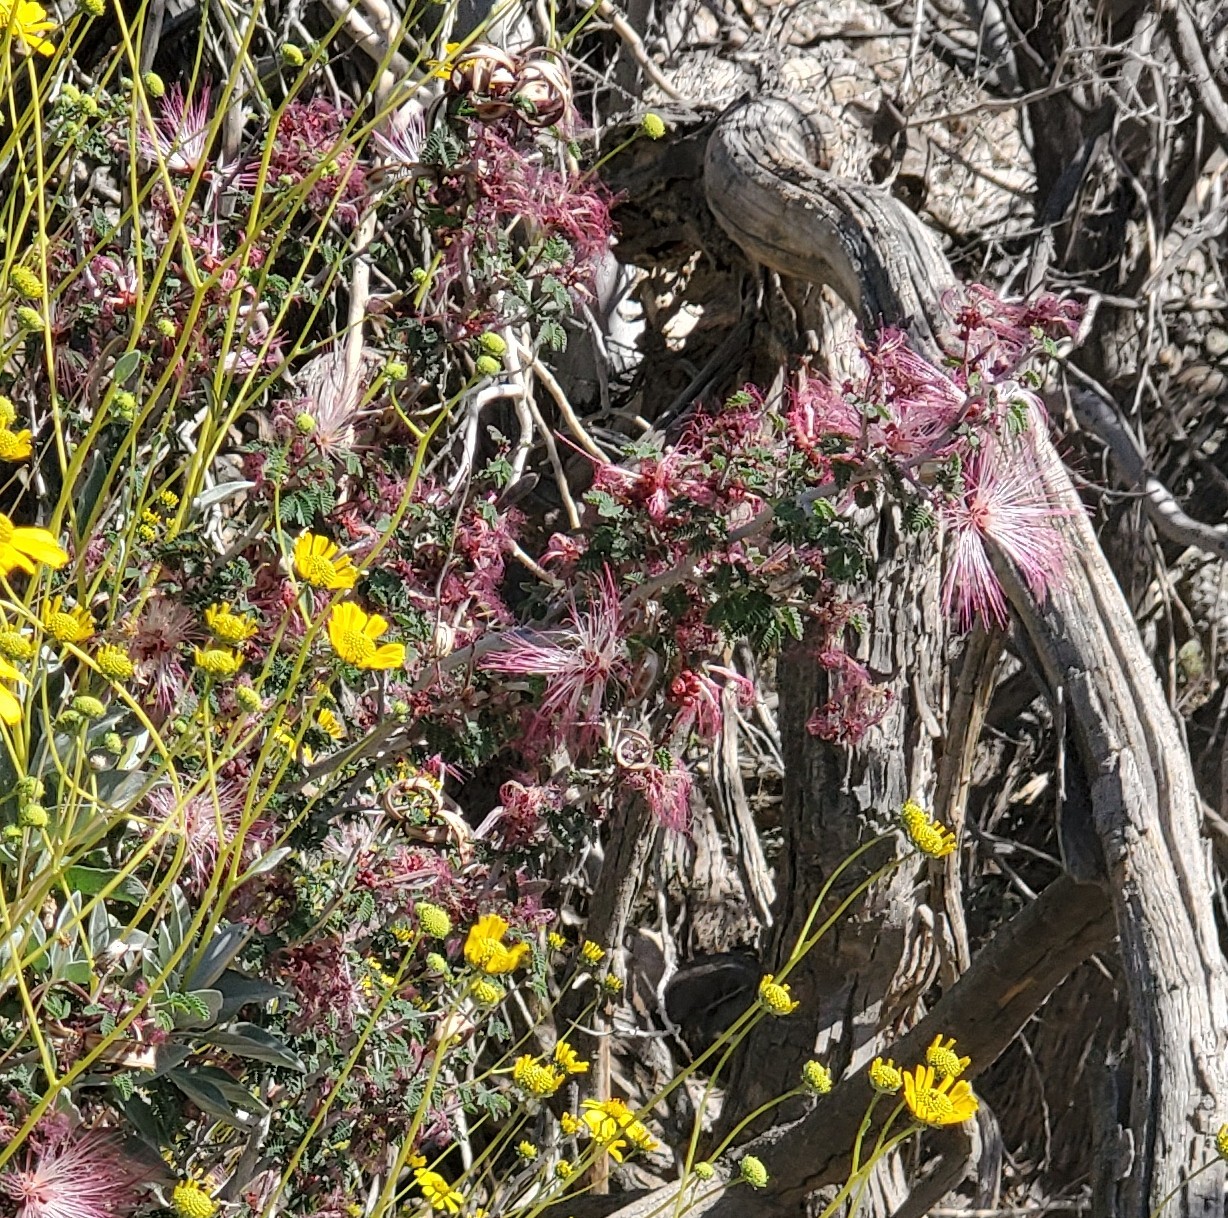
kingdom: Plantae
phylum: Tracheophyta
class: Magnoliopsida
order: Fabales
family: Fabaceae
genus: Calliandra
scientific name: Calliandra eriophylla
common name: Fairy-duster
